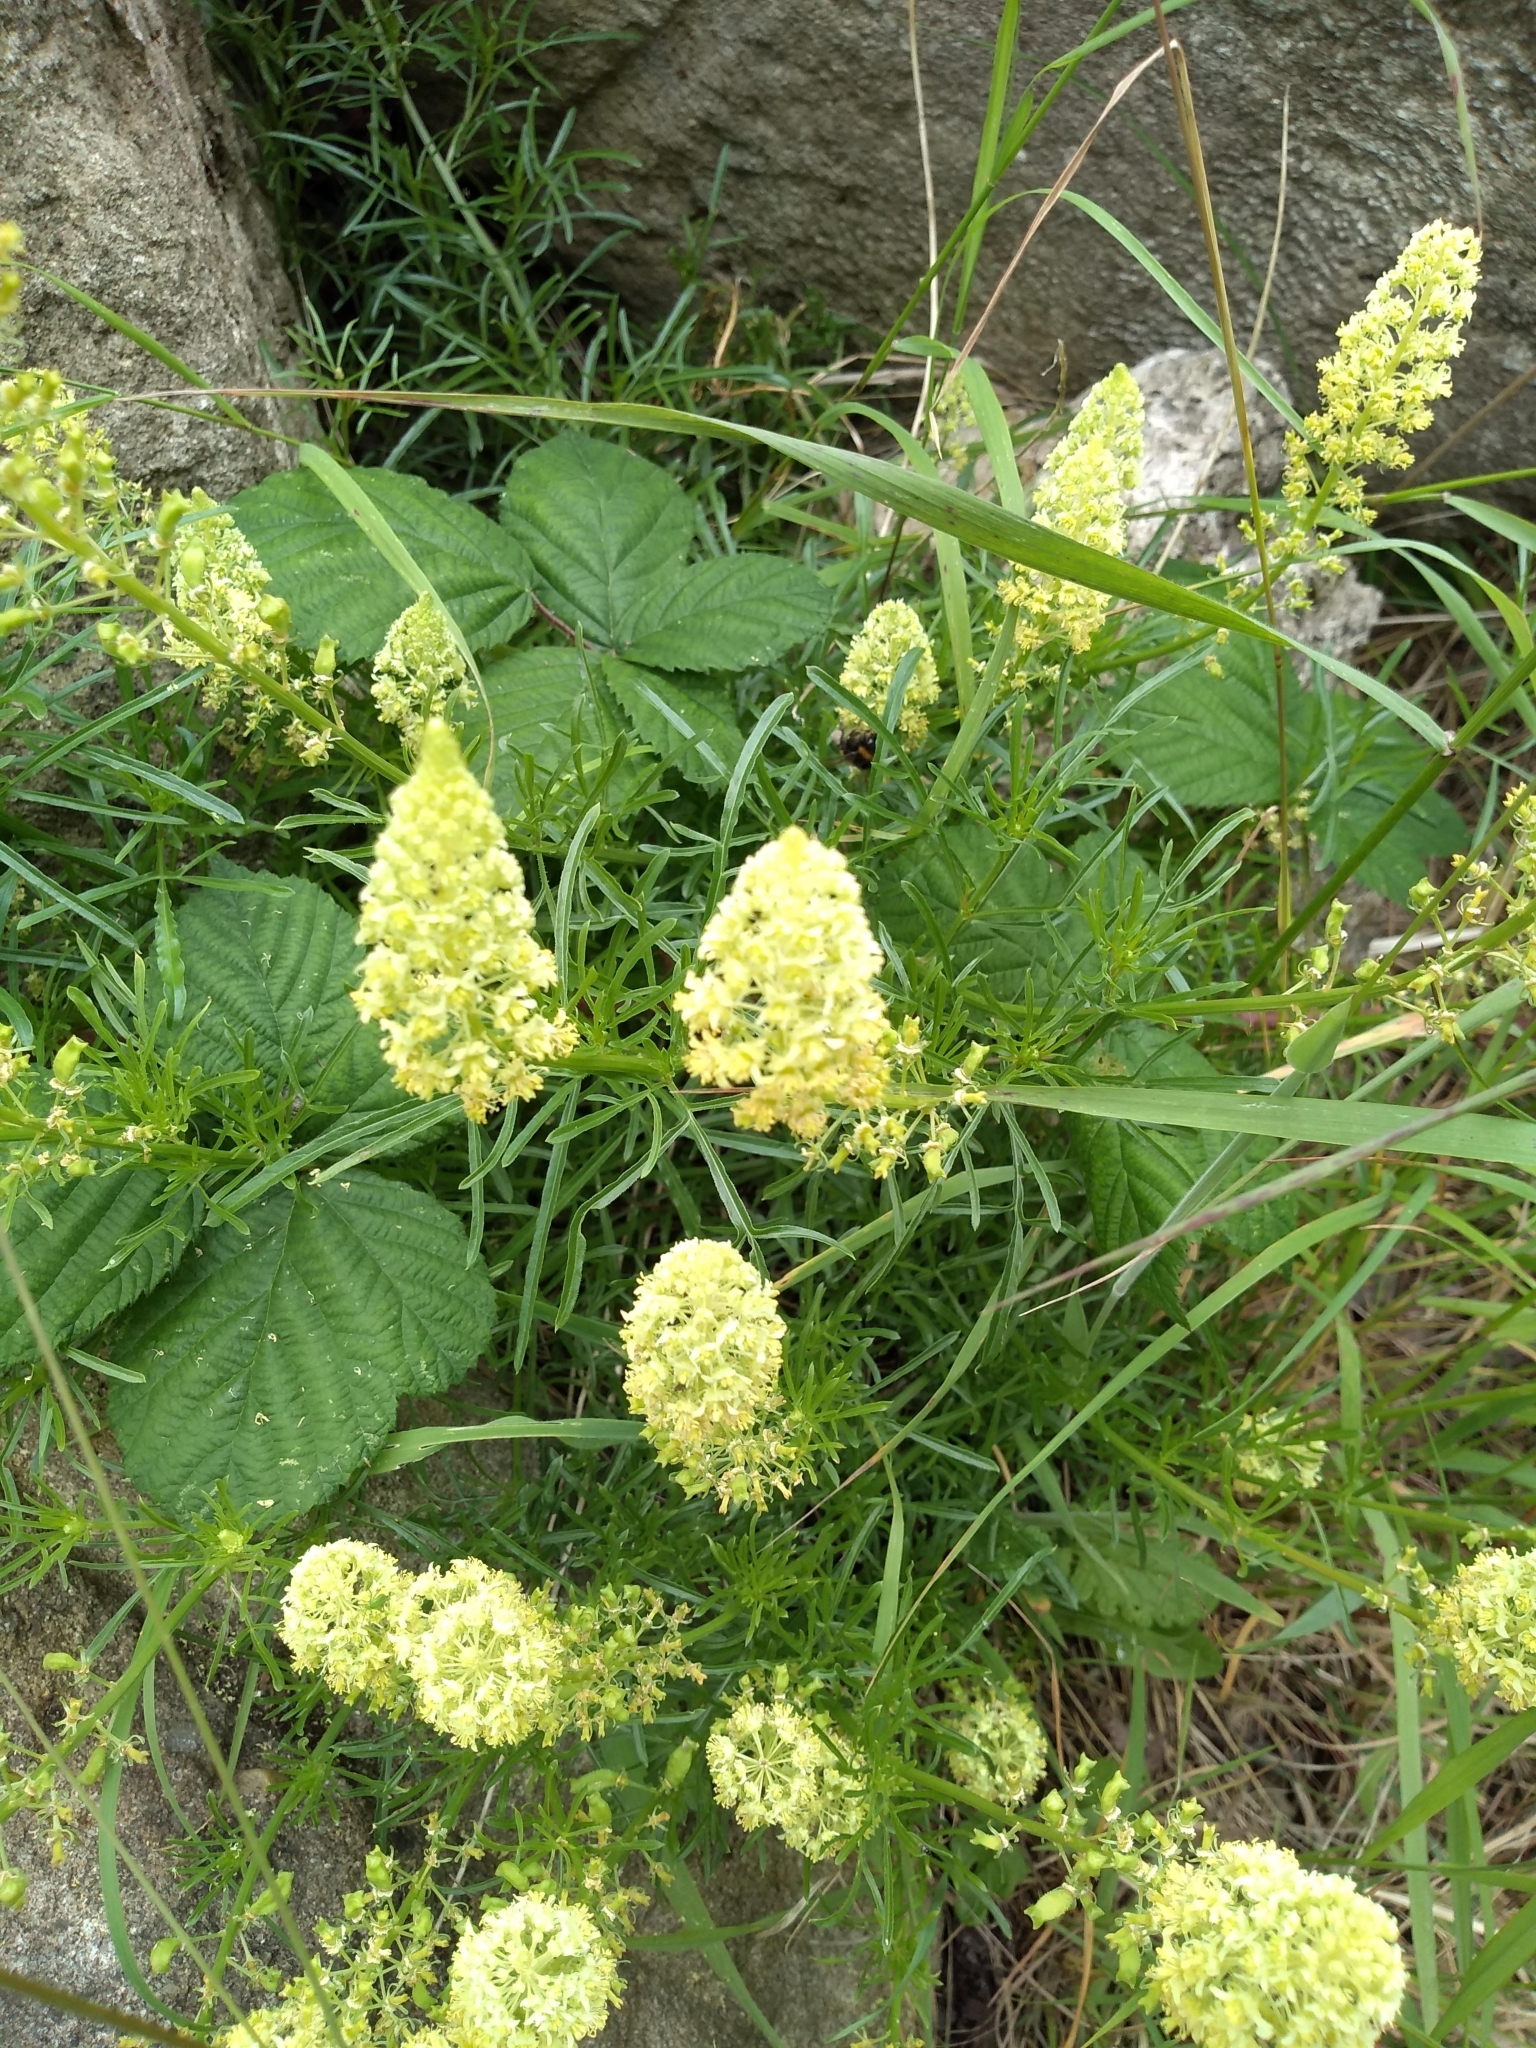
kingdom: Plantae
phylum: Tracheophyta
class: Magnoliopsida
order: Brassicales
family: Resedaceae
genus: Reseda
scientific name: Reseda lutea
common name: Wild mignonette
